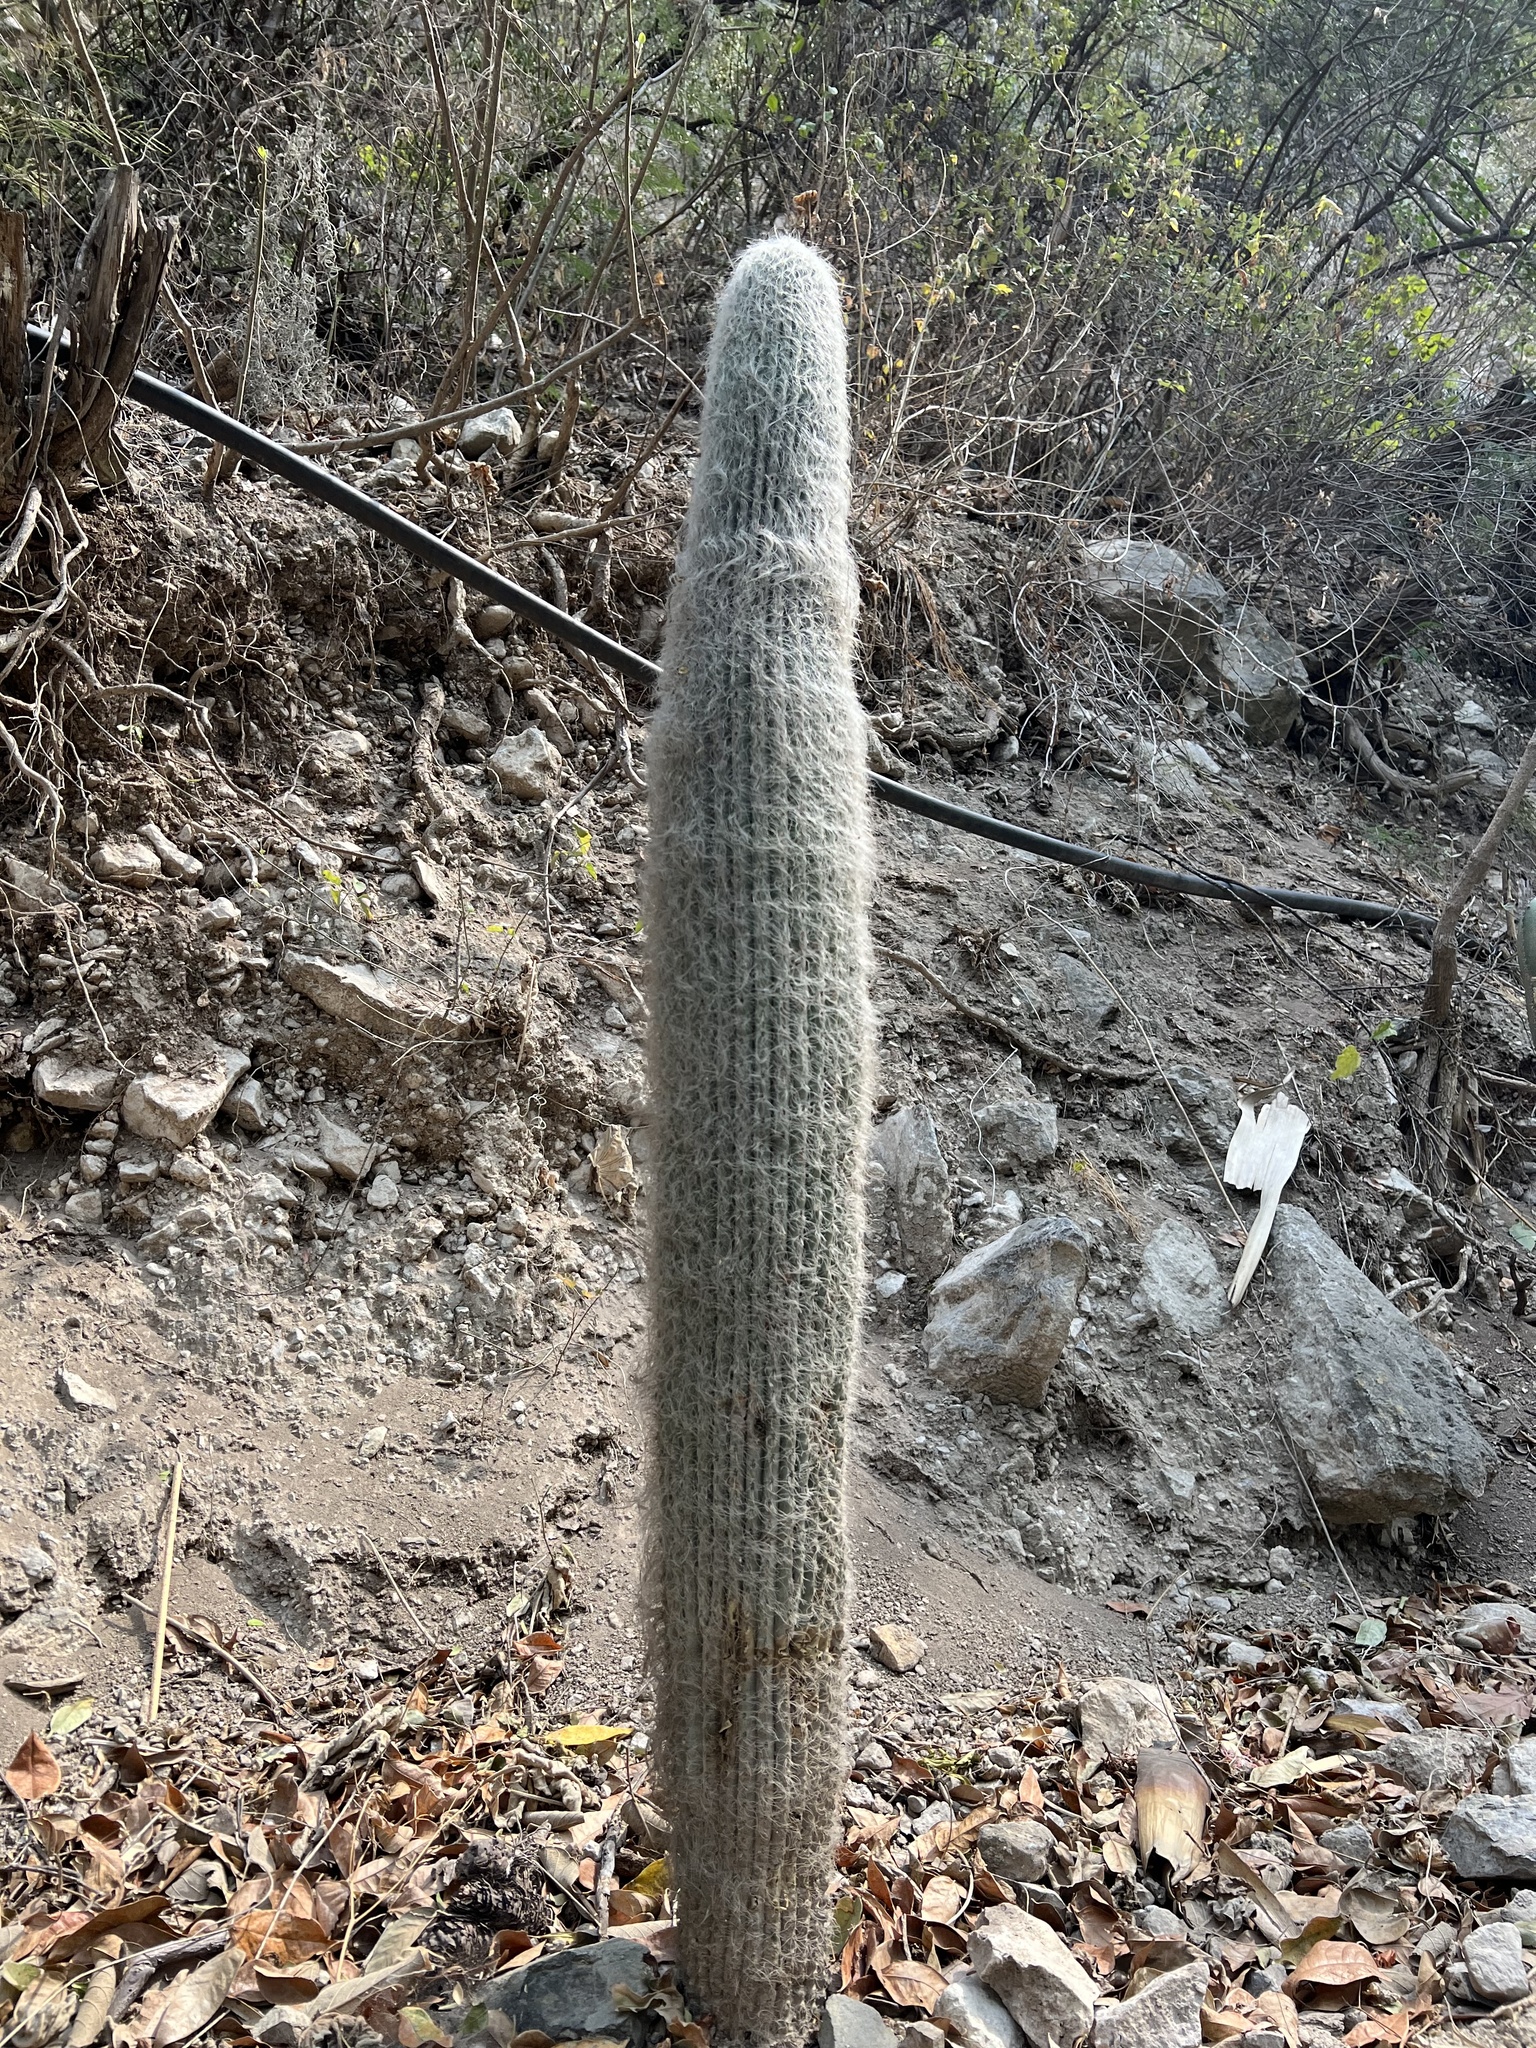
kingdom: Plantae
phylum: Tracheophyta
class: Magnoliopsida
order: Caryophyllales
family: Cactaceae
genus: Cephalocereus
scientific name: Cephalocereus senilis
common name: Old man cactus
